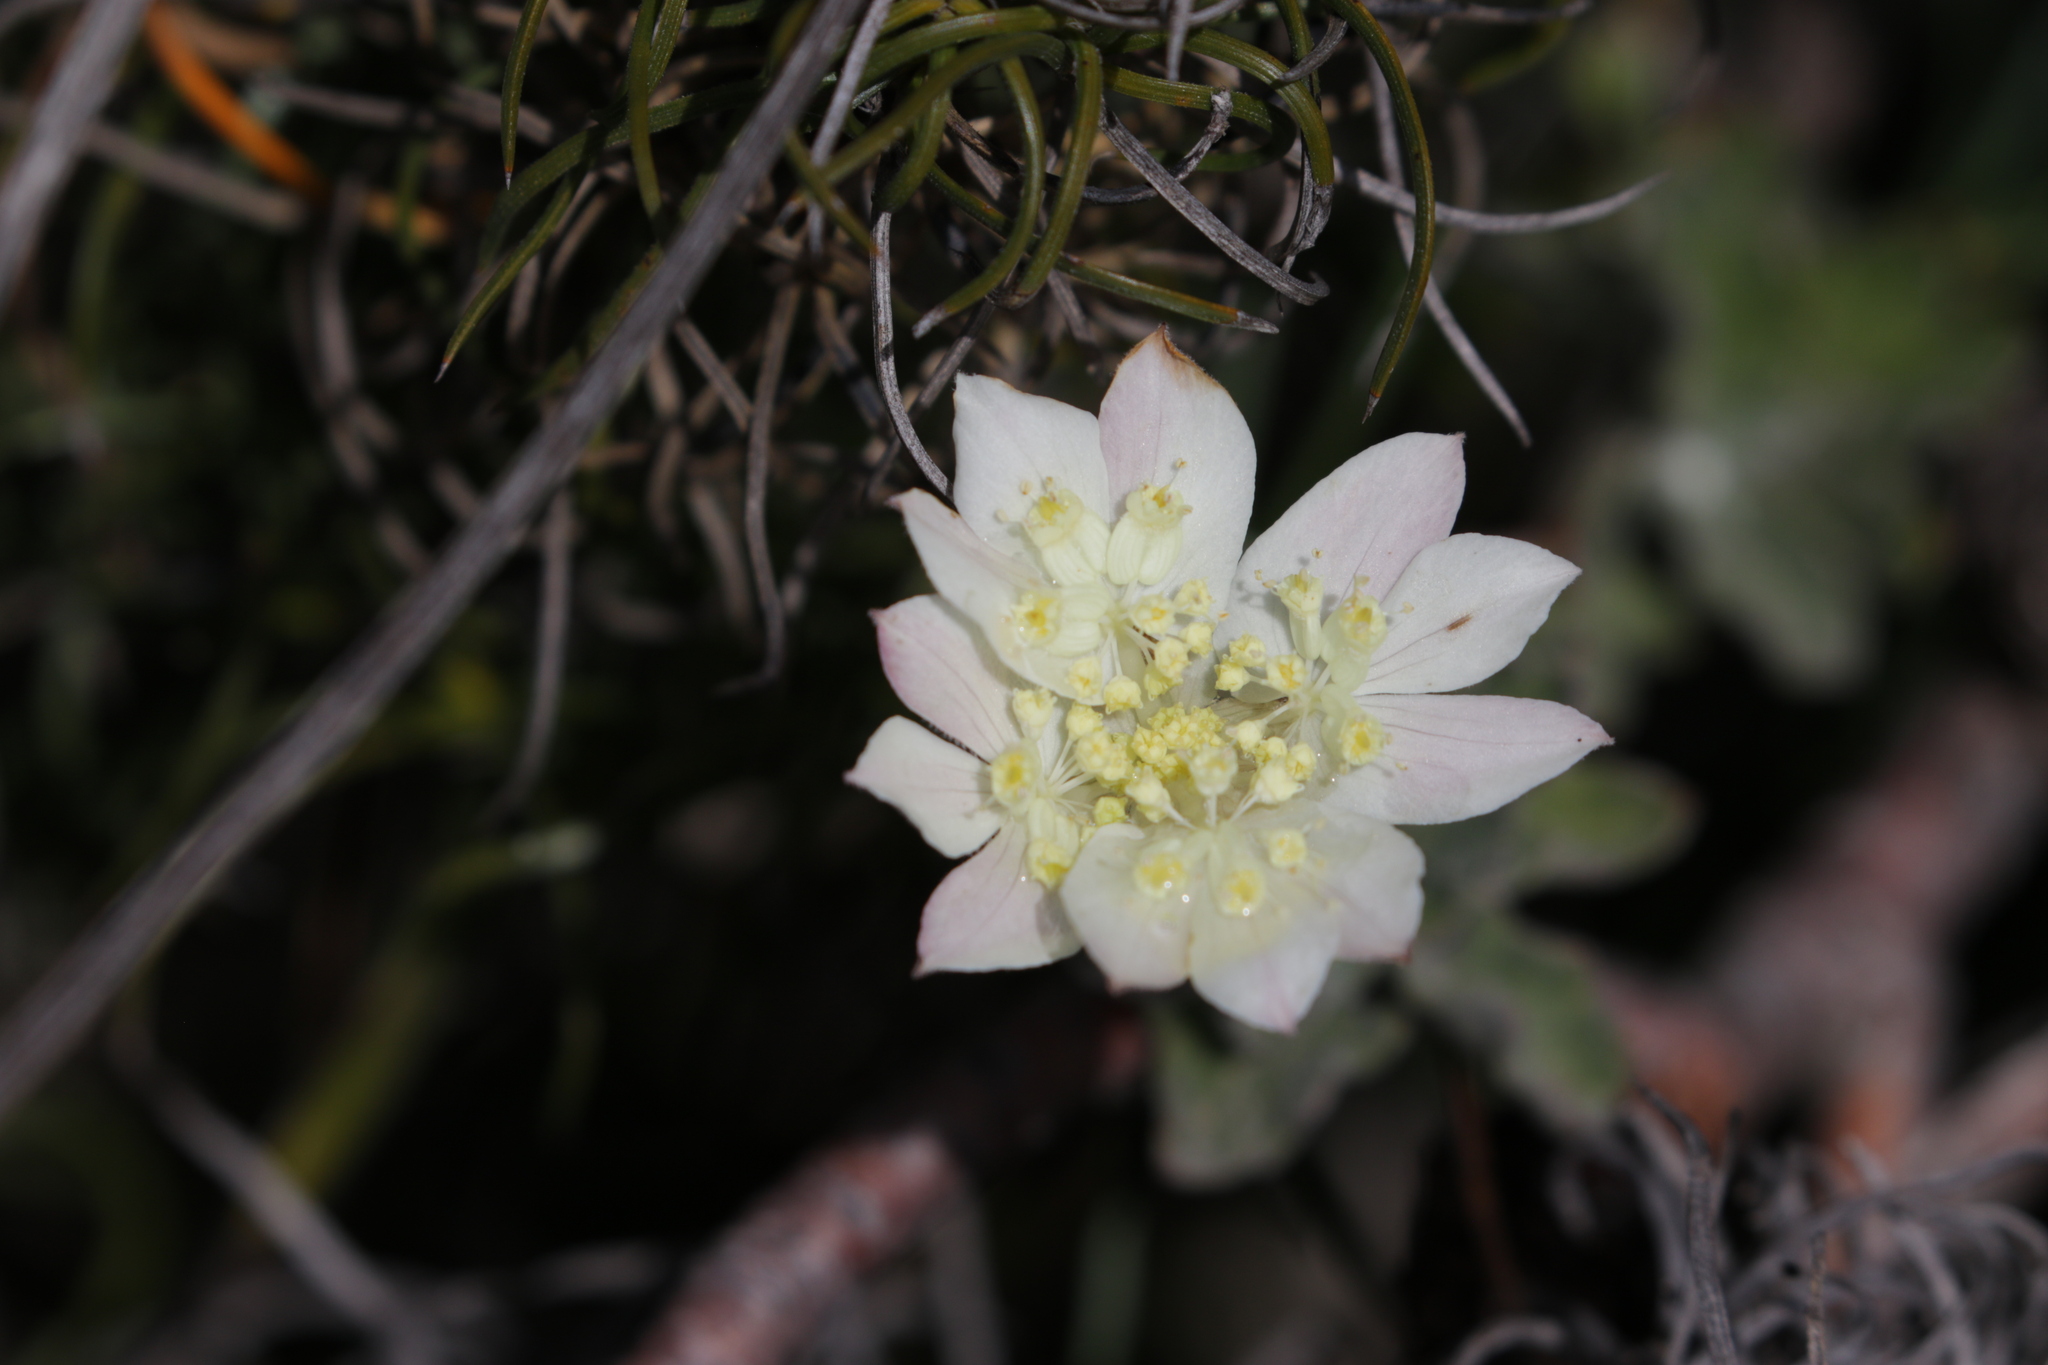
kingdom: Plantae
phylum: Tracheophyta
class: Magnoliopsida
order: Apiales
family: Apiaceae
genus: Xanthosia
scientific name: Xanthosia tomentosa
